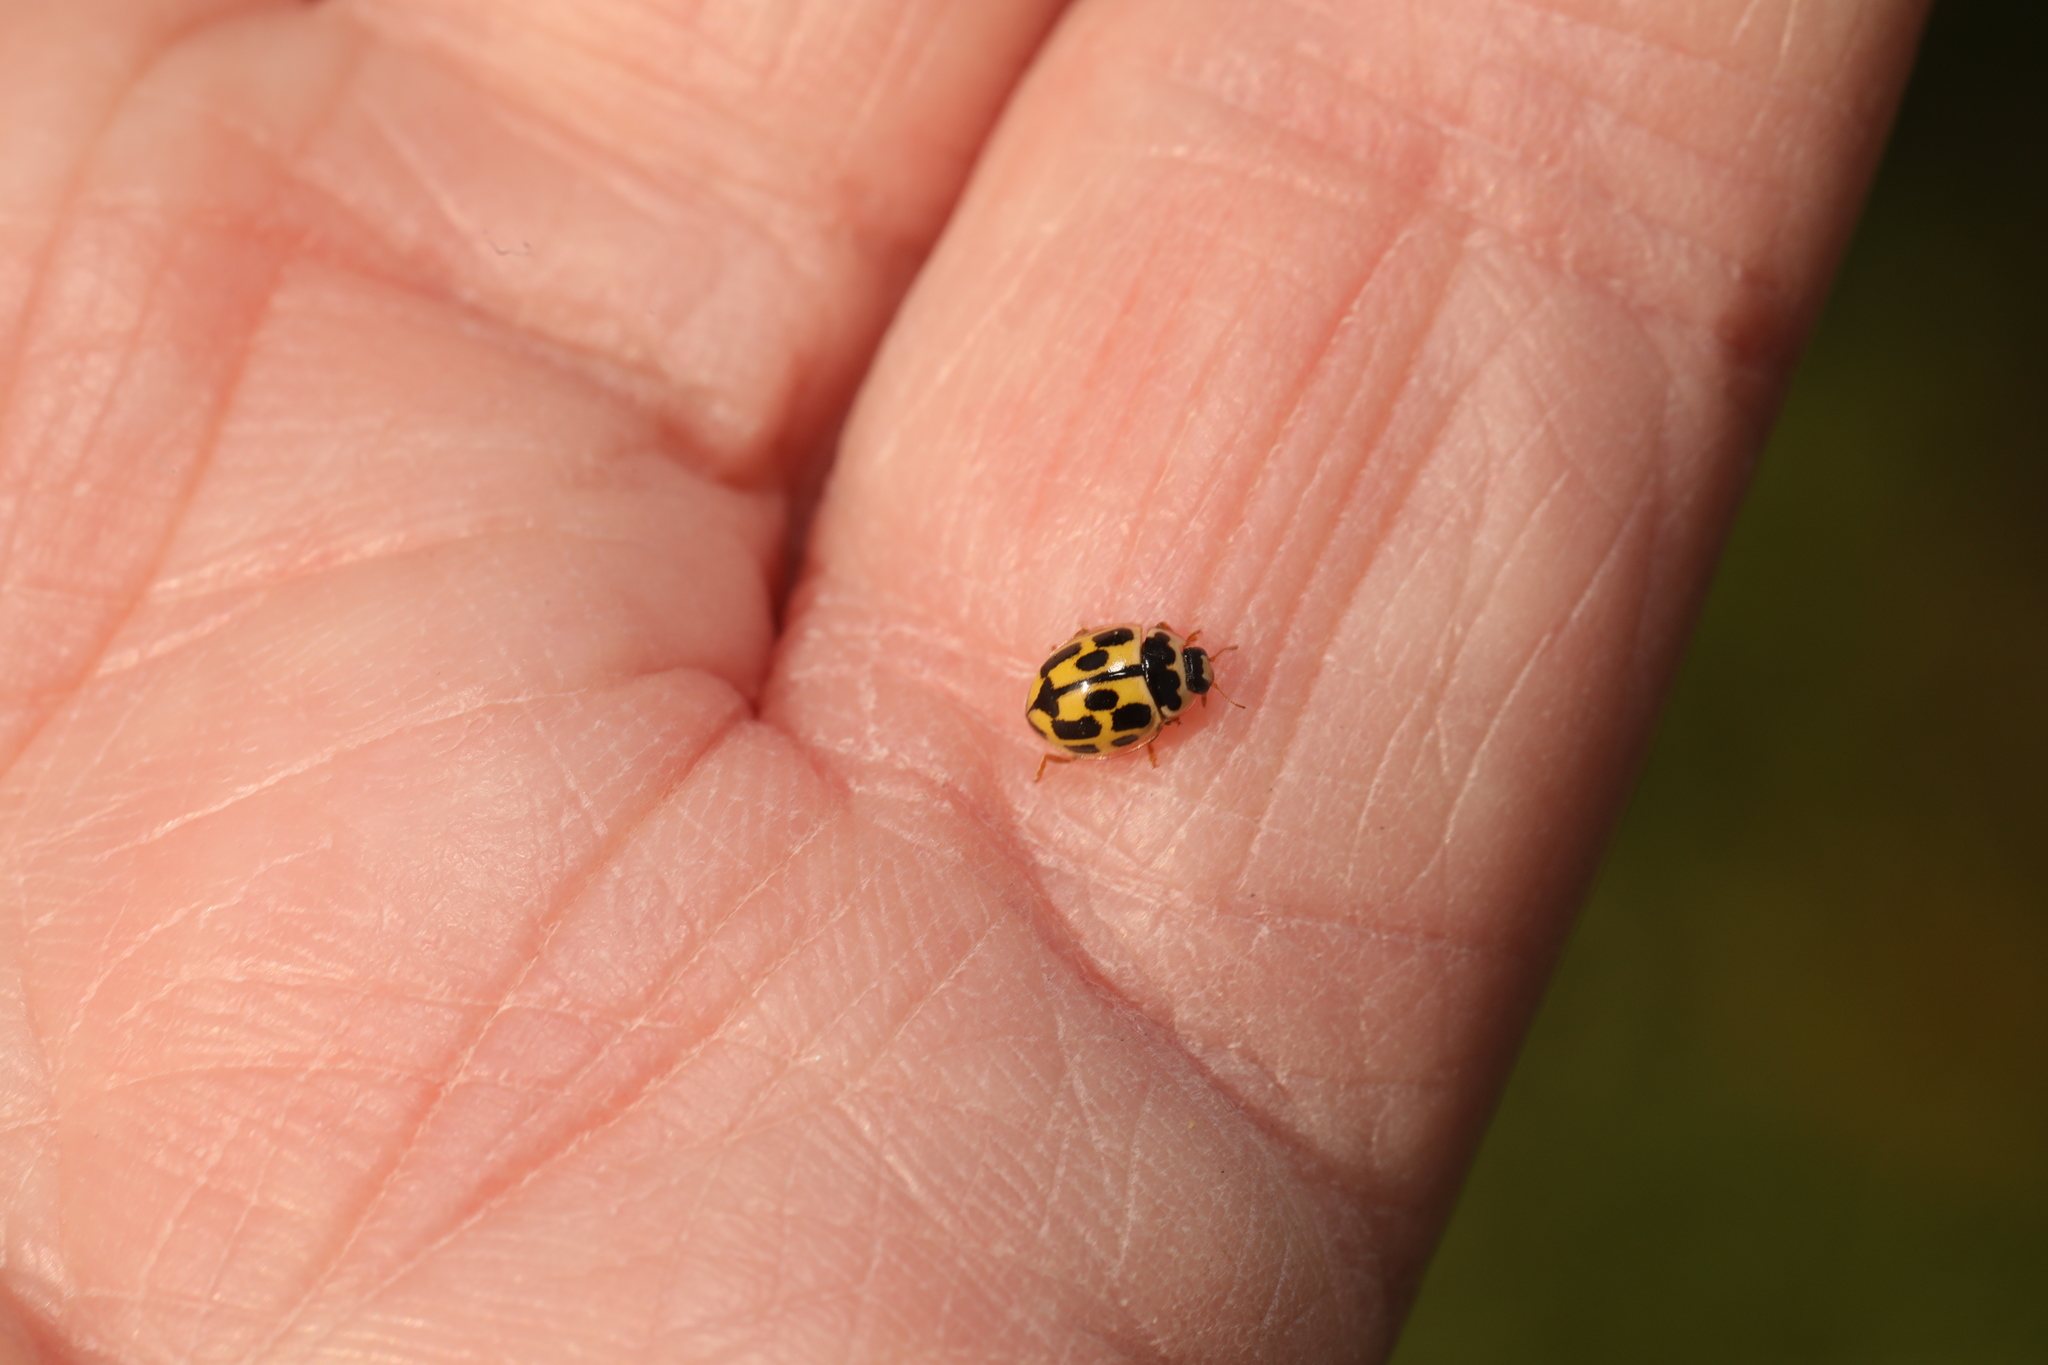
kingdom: Animalia
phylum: Arthropoda
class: Insecta
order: Coleoptera
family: Coccinellidae
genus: Propylaea
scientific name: Propylaea quatuordecimpunctata
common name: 14-spotted ladybird beetle
